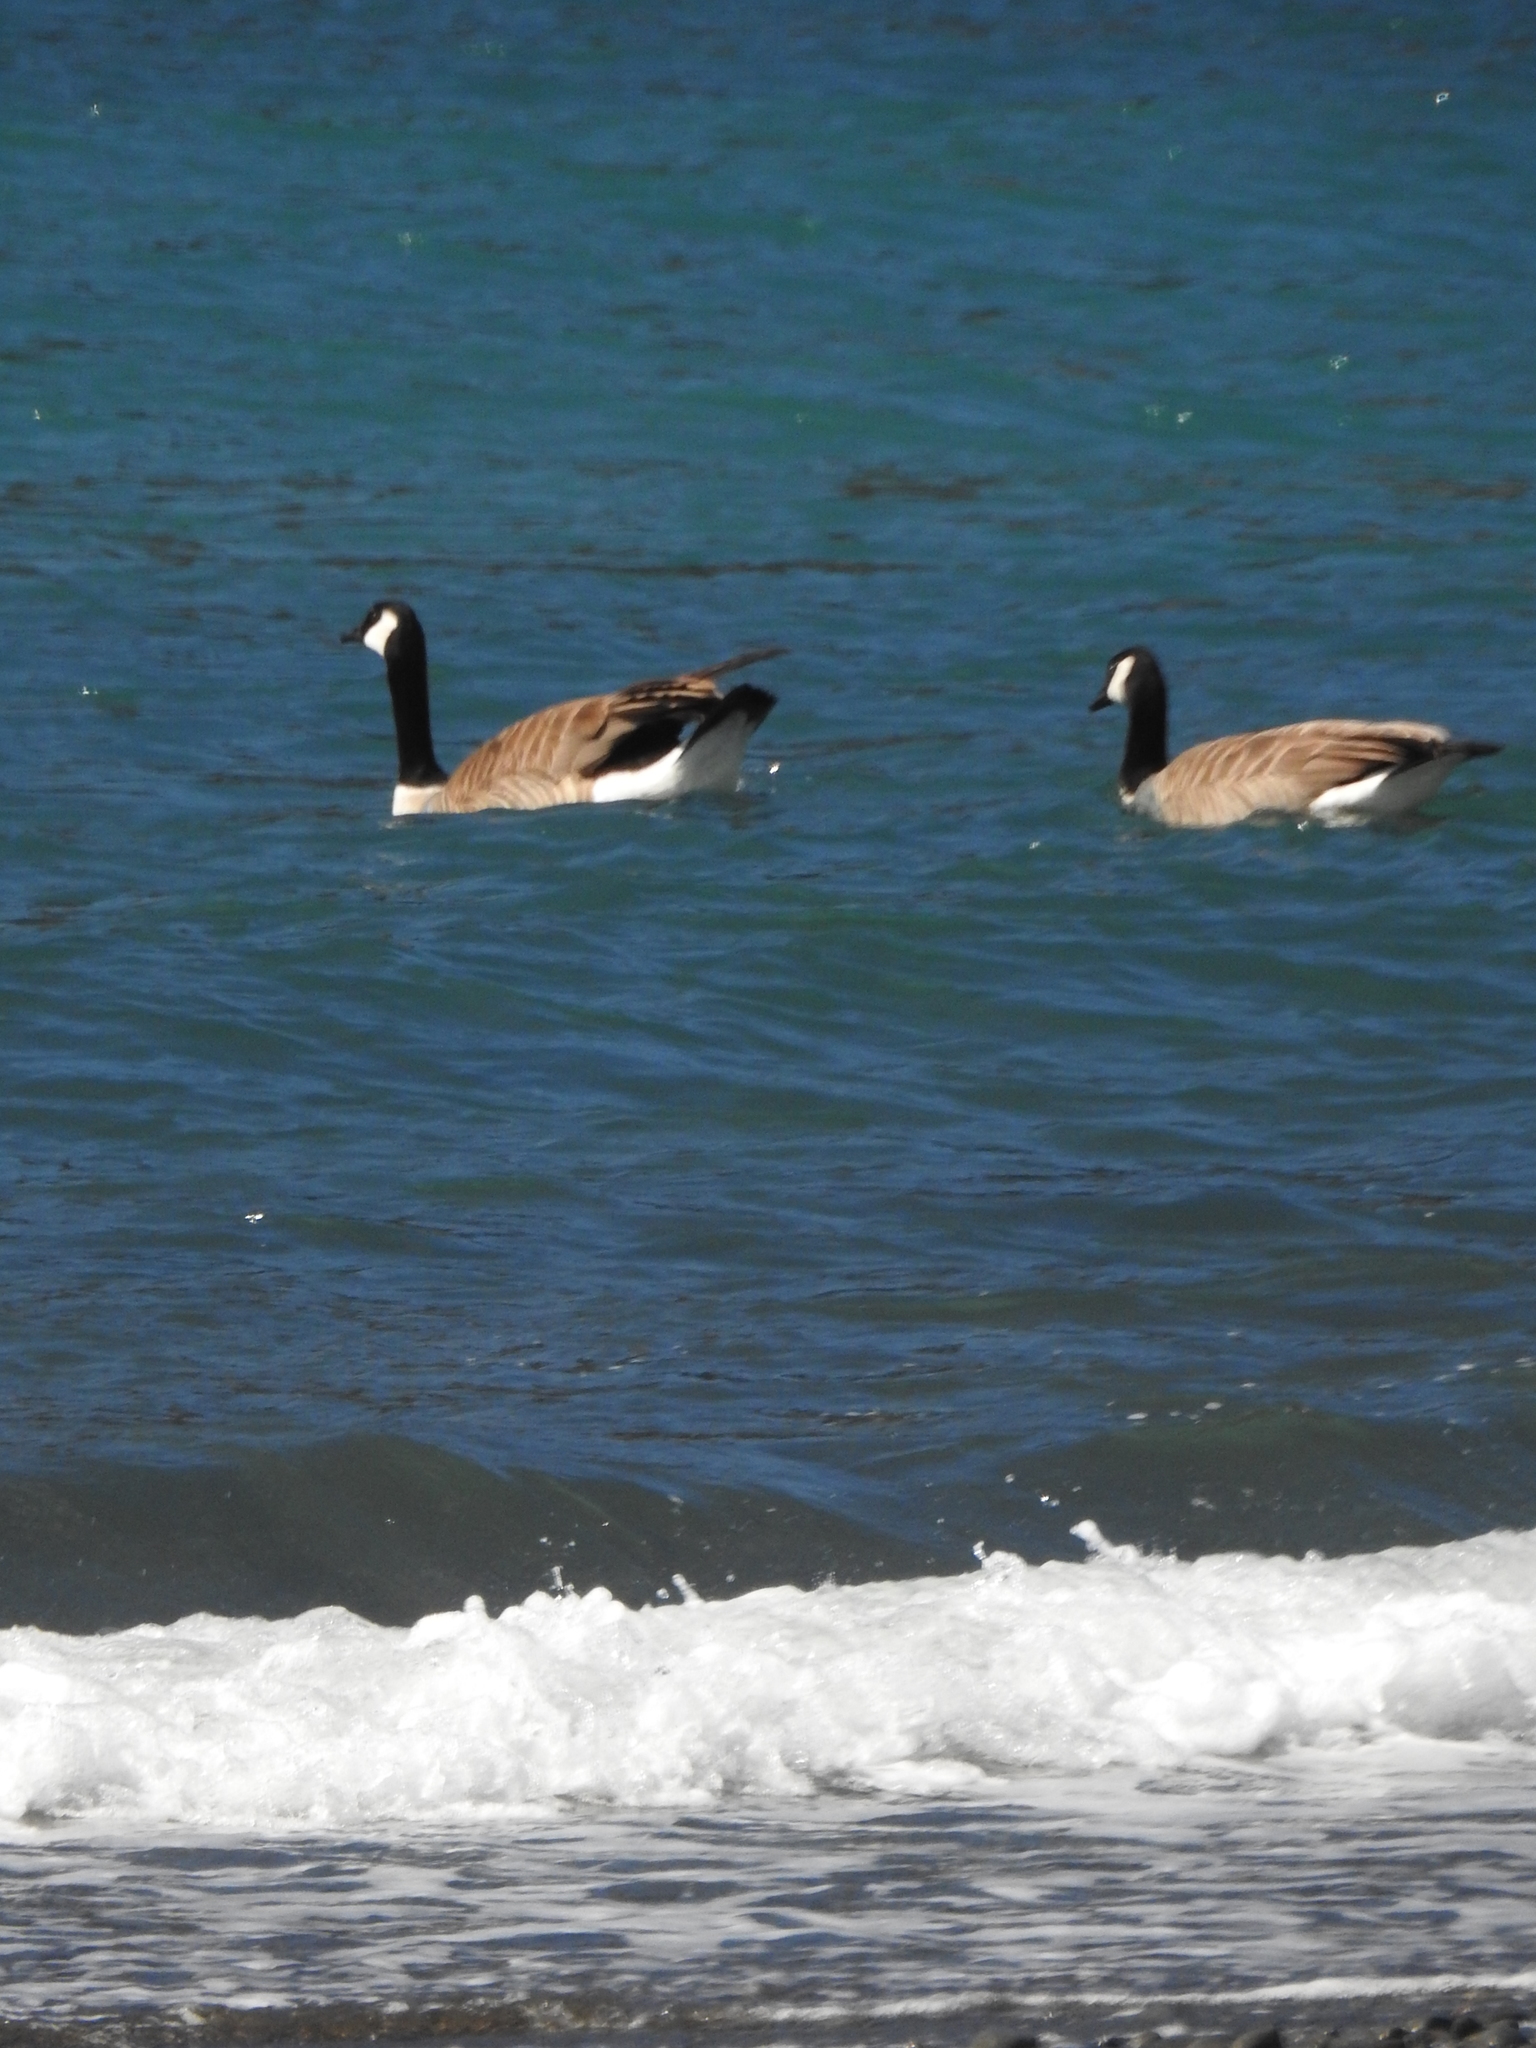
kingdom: Animalia
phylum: Chordata
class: Aves
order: Anseriformes
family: Anatidae
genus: Branta
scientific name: Branta canadensis
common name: Canada goose
